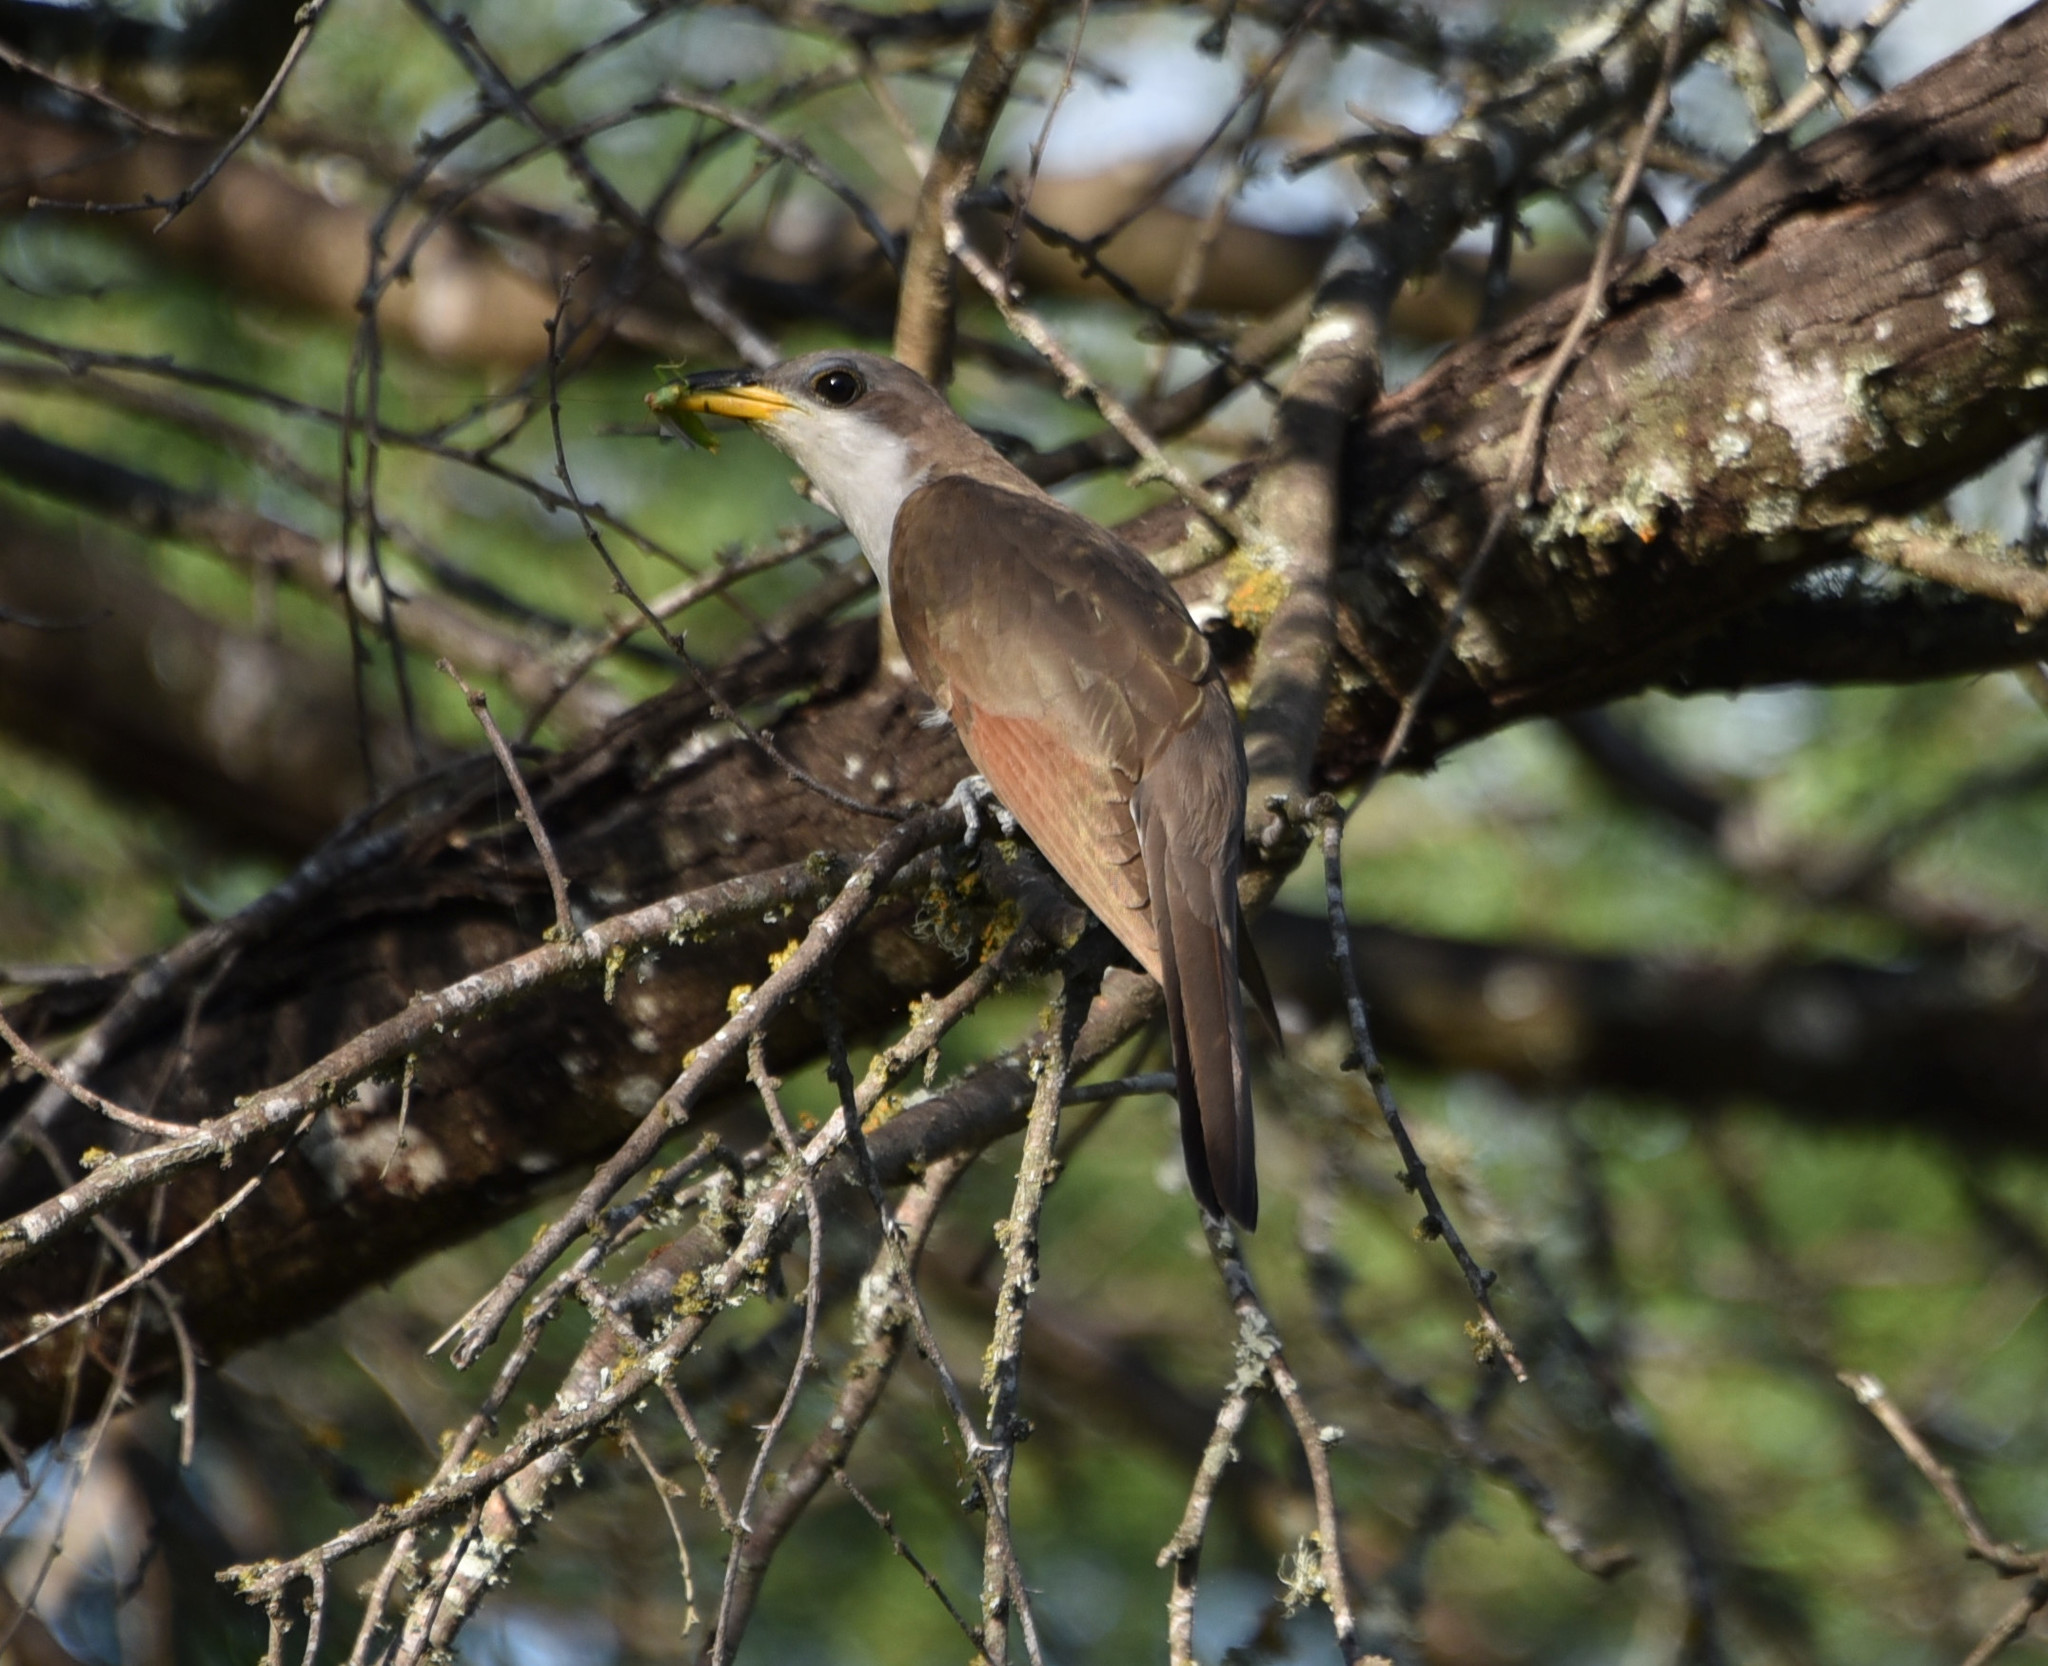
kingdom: Animalia
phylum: Chordata
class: Aves
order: Cuculiformes
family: Cuculidae
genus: Coccyzus
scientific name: Coccyzus americanus
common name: Yellow-billed cuckoo
